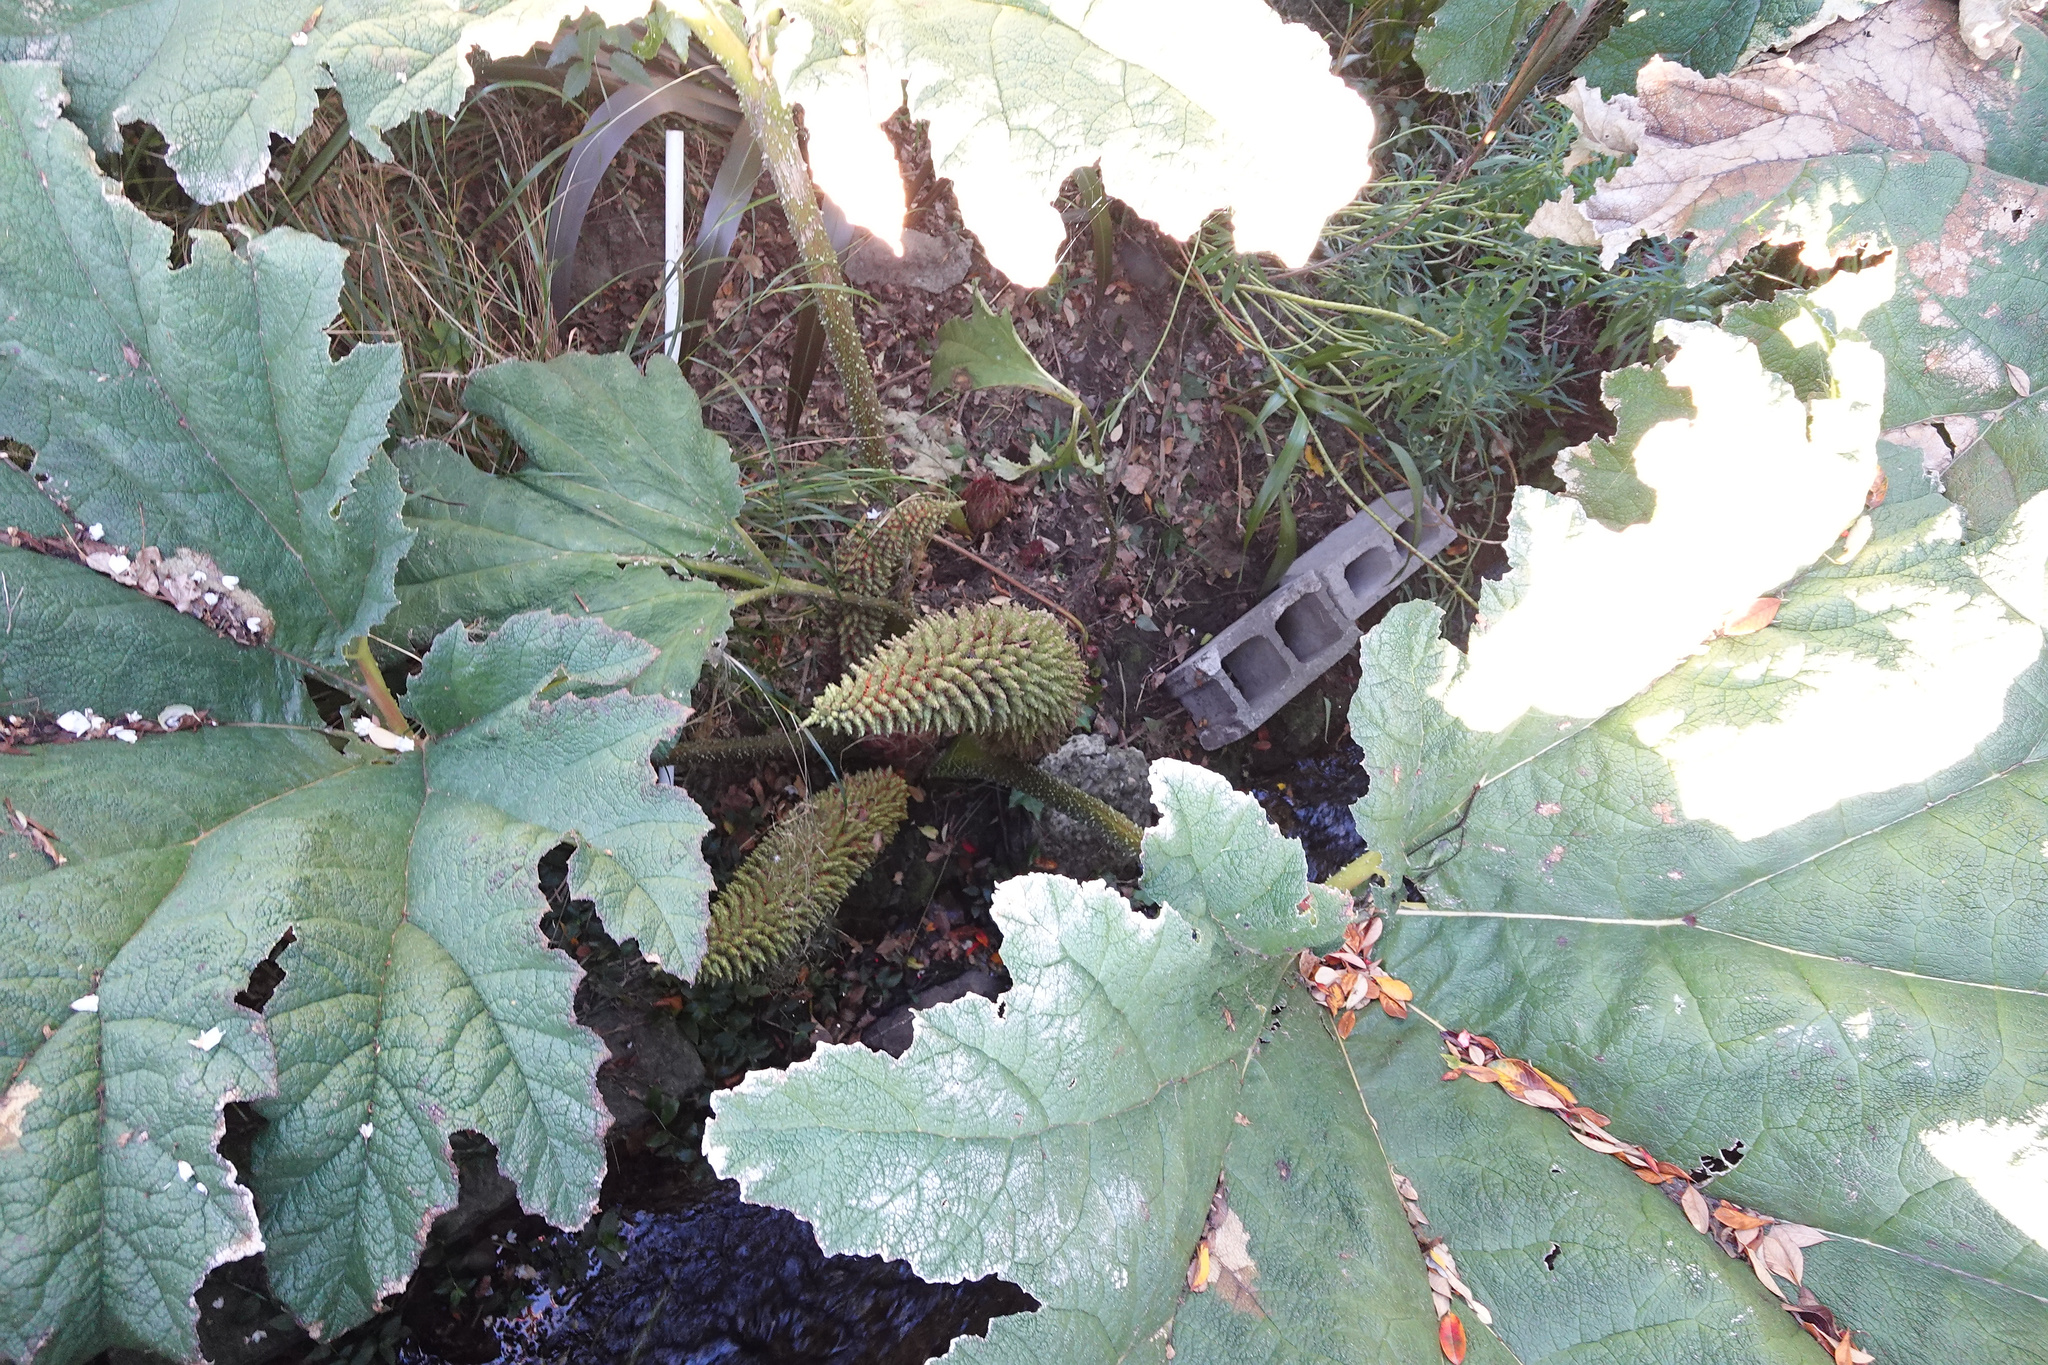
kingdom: Plantae
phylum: Tracheophyta
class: Magnoliopsida
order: Gunnerales
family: Gunneraceae
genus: Gunnera
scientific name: Gunnera tinctoria
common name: Giant-rhubarb
